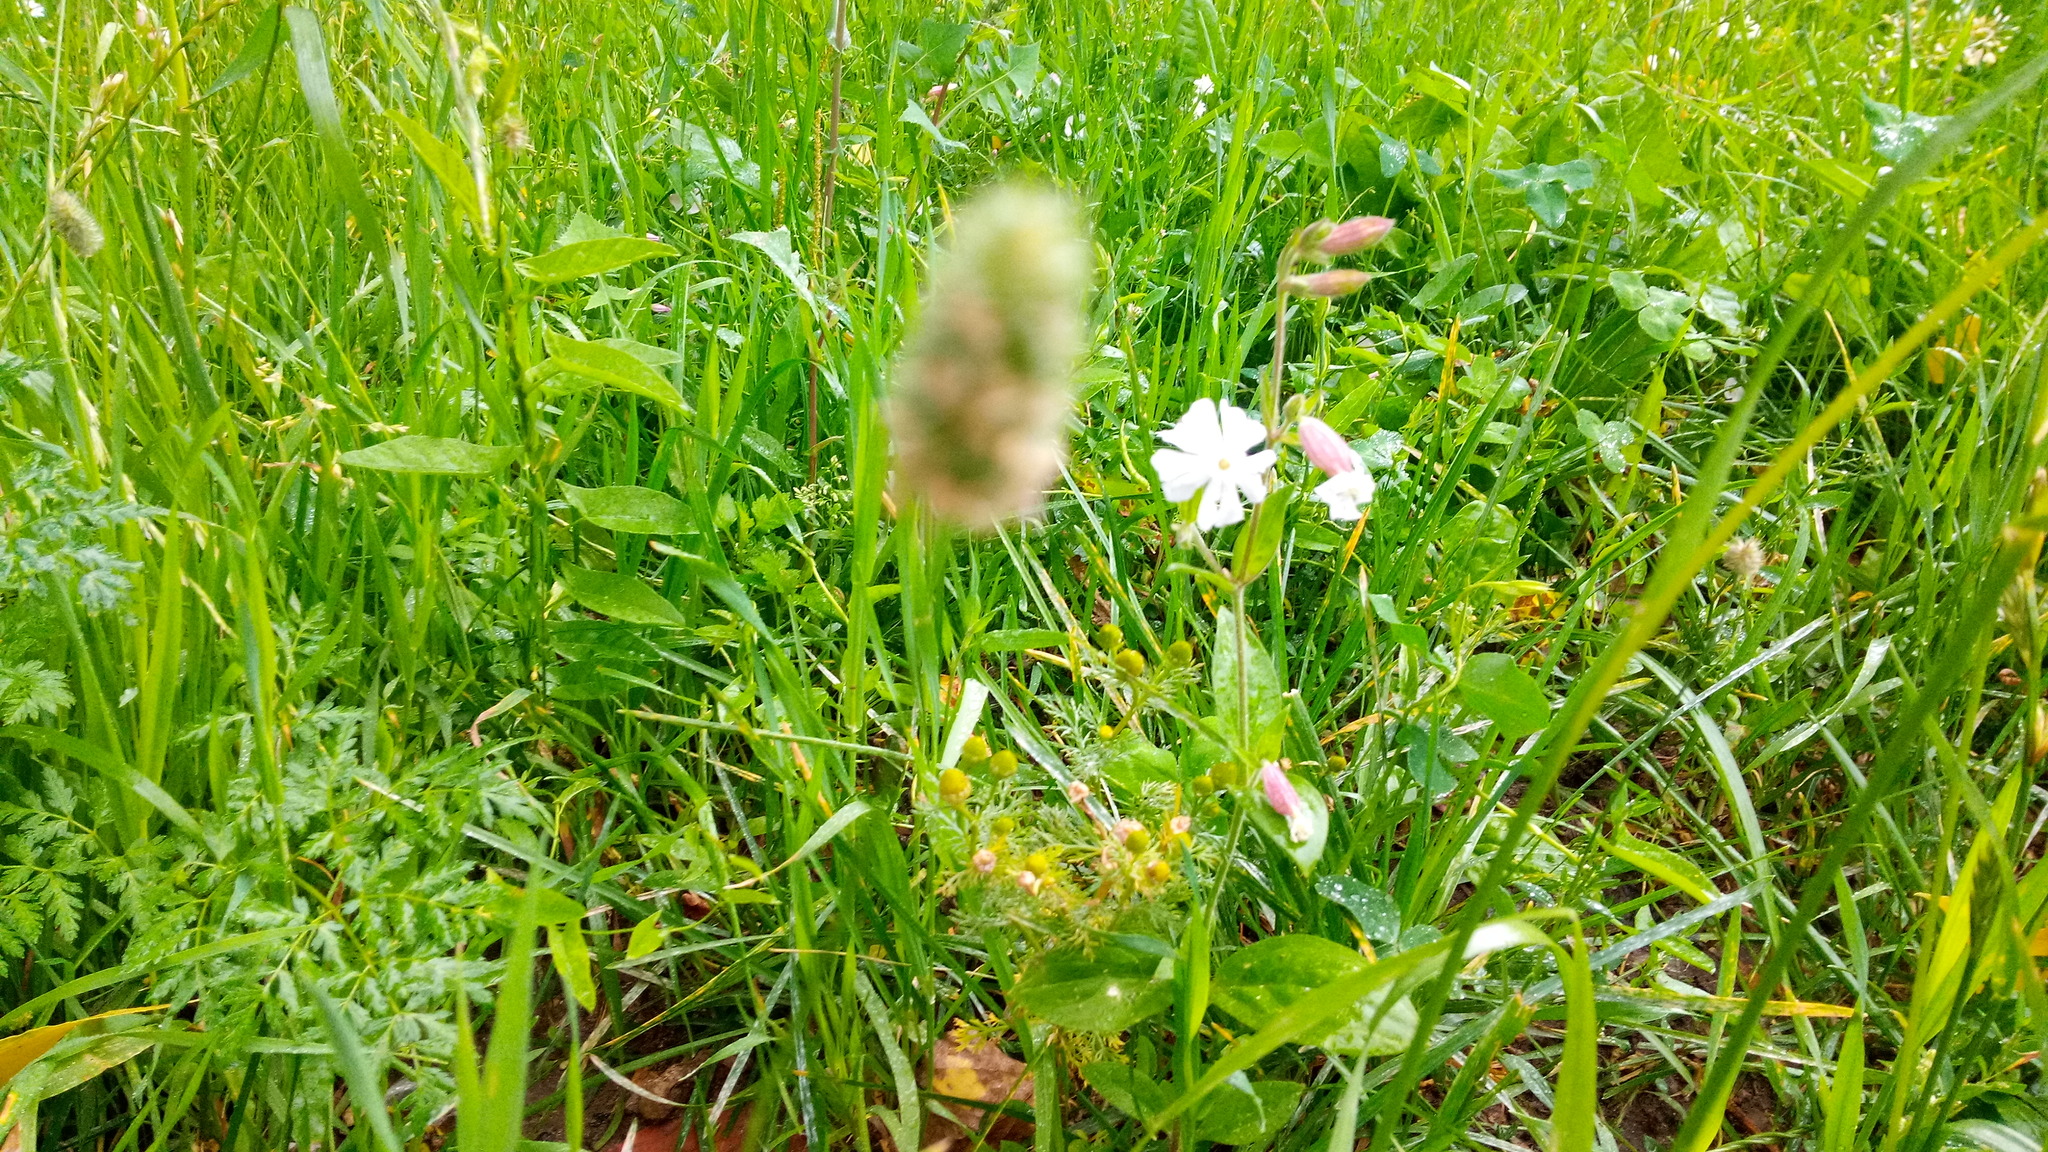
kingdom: Plantae
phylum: Tracheophyta
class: Magnoliopsida
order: Caryophyllales
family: Caryophyllaceae
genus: Silene
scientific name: Silene latifolia
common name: White campion
